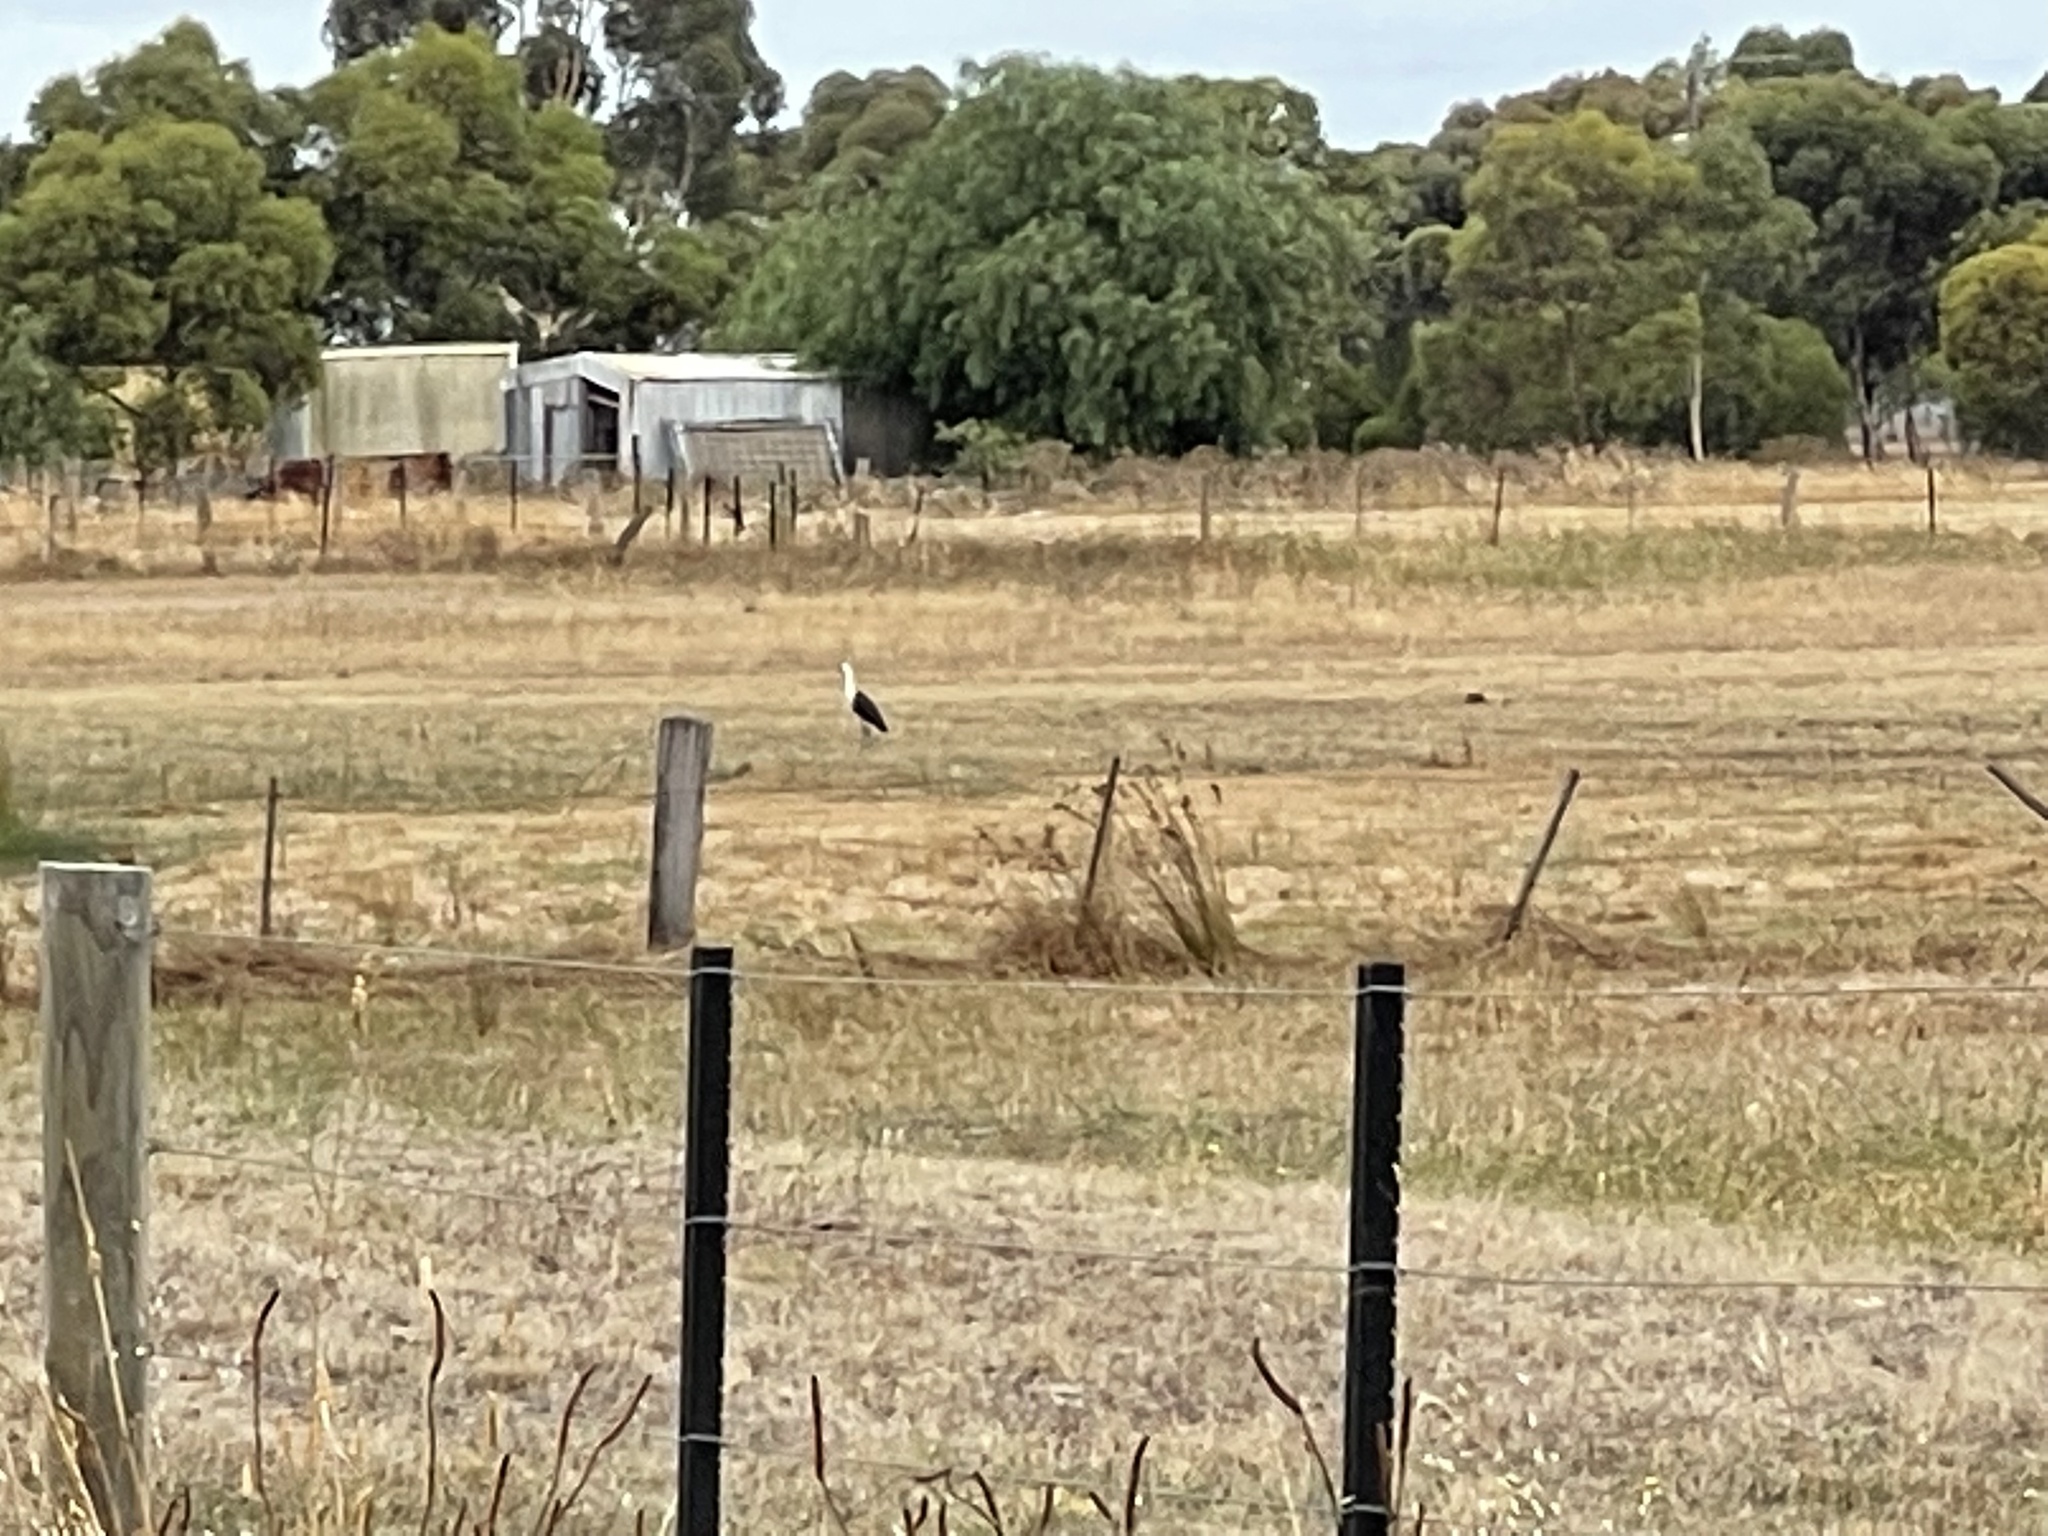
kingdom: Animalia
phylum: Chordata
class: Aves
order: Pelecaniformes
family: Ardeidae
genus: Ardea
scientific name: Ardea pacifica
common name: White-necked heron
